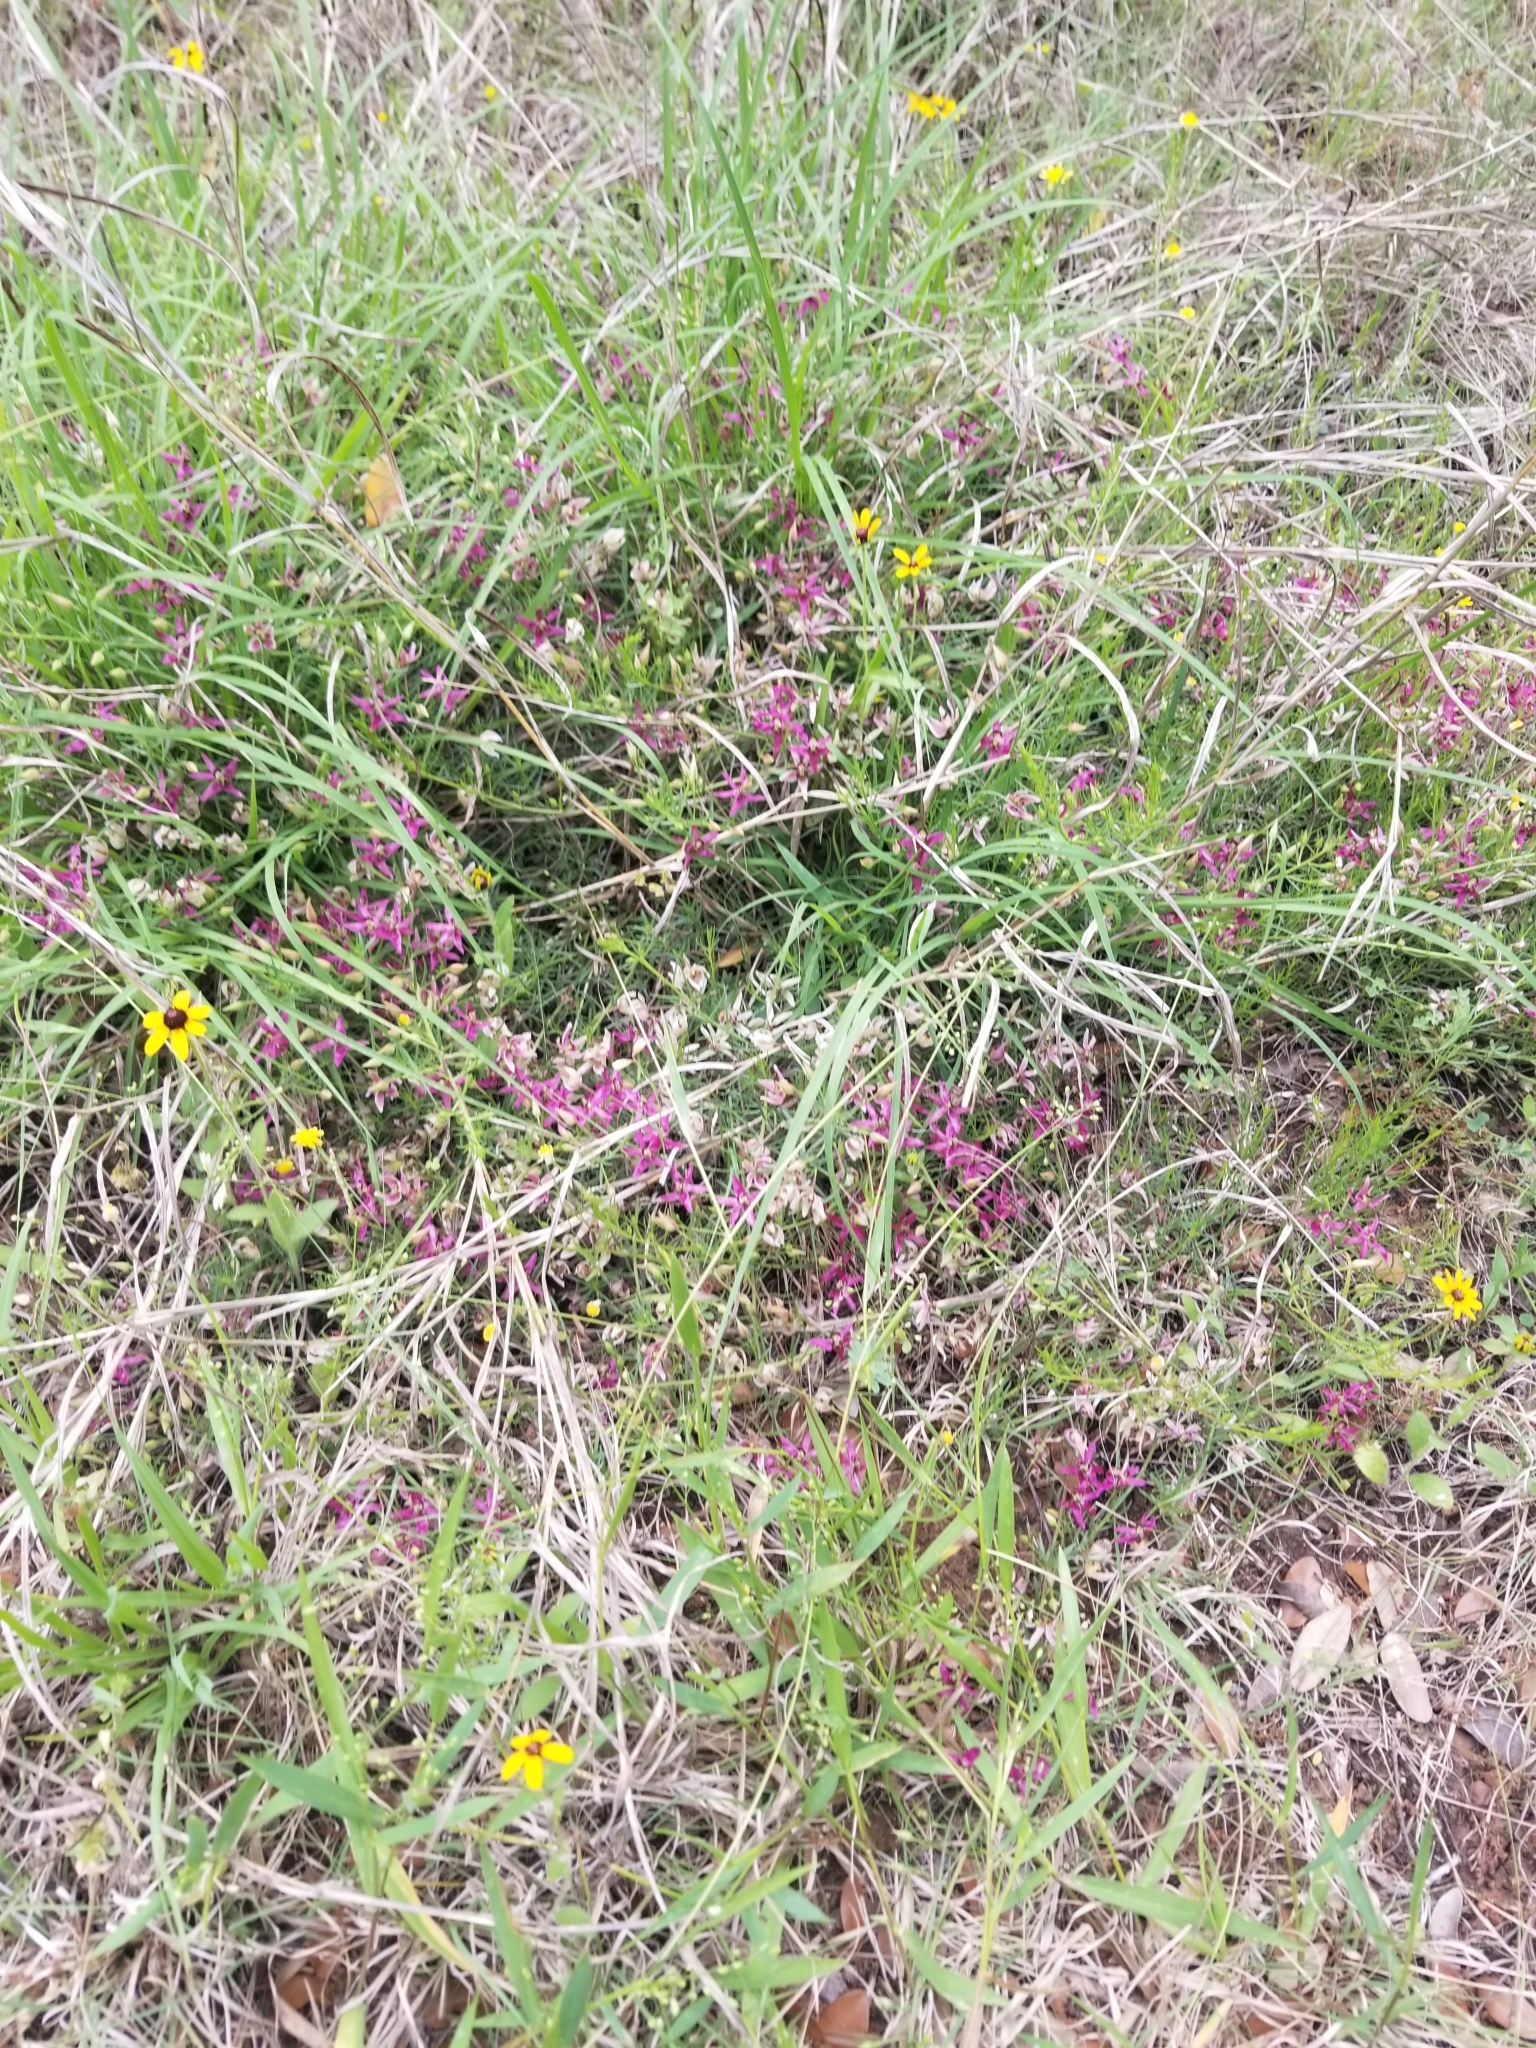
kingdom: Plantae
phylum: Tracheophyta
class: Magnoliopsida
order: Zygophyllales
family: Krameriaceae
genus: Krameria
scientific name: Krameria lanceolata
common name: Ratany
